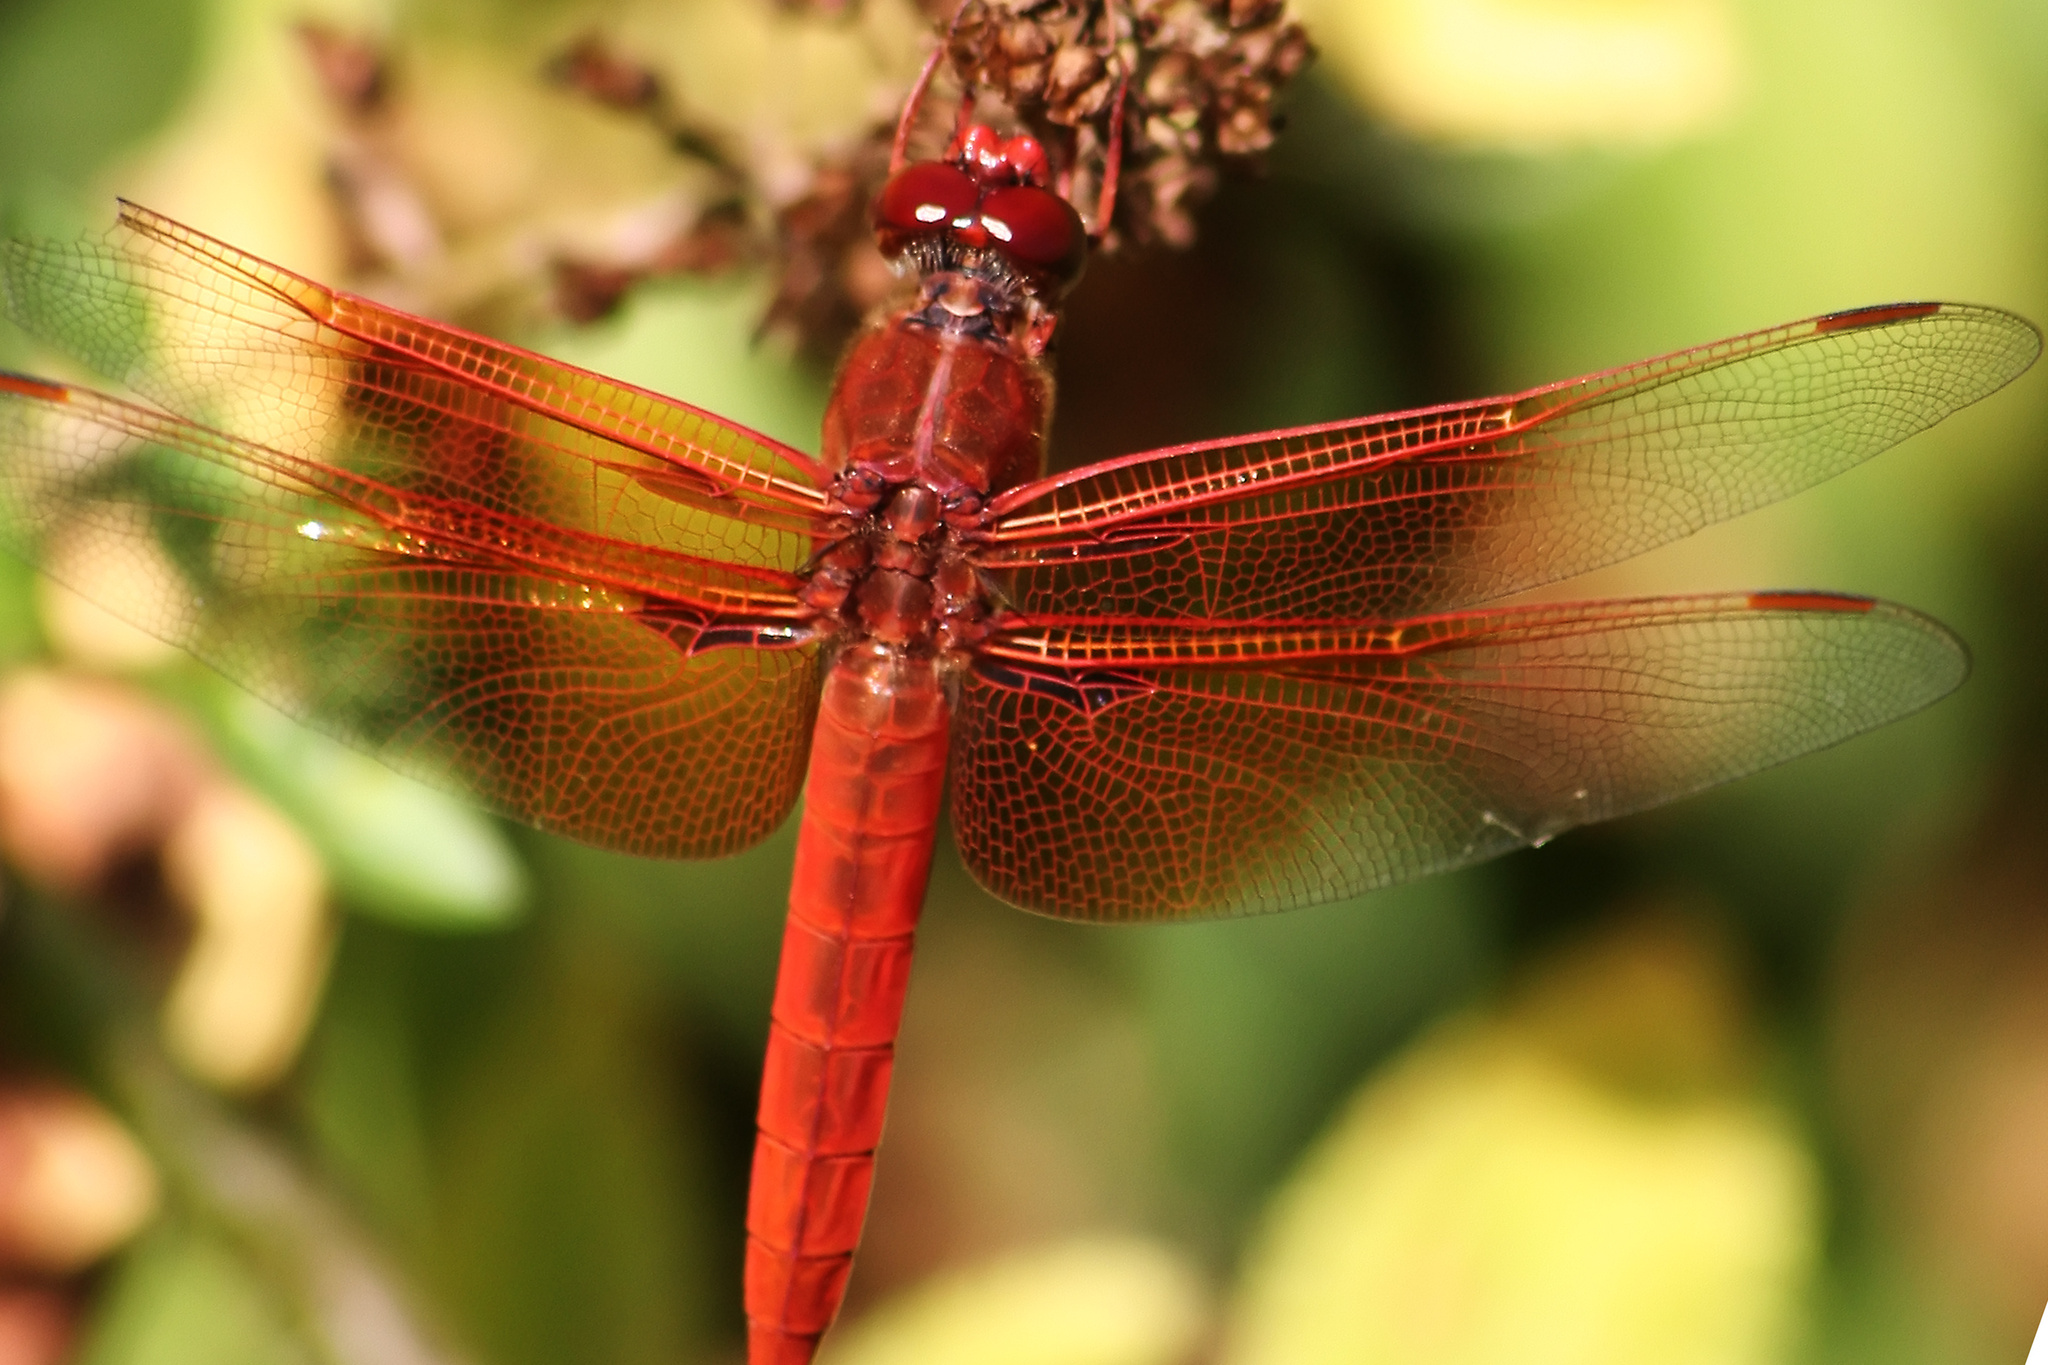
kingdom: Animalia
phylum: Arthropoda
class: Insecta
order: Odonata
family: Libellulidae
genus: Libellula
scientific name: Libellula saturata
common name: Flame skimmer
